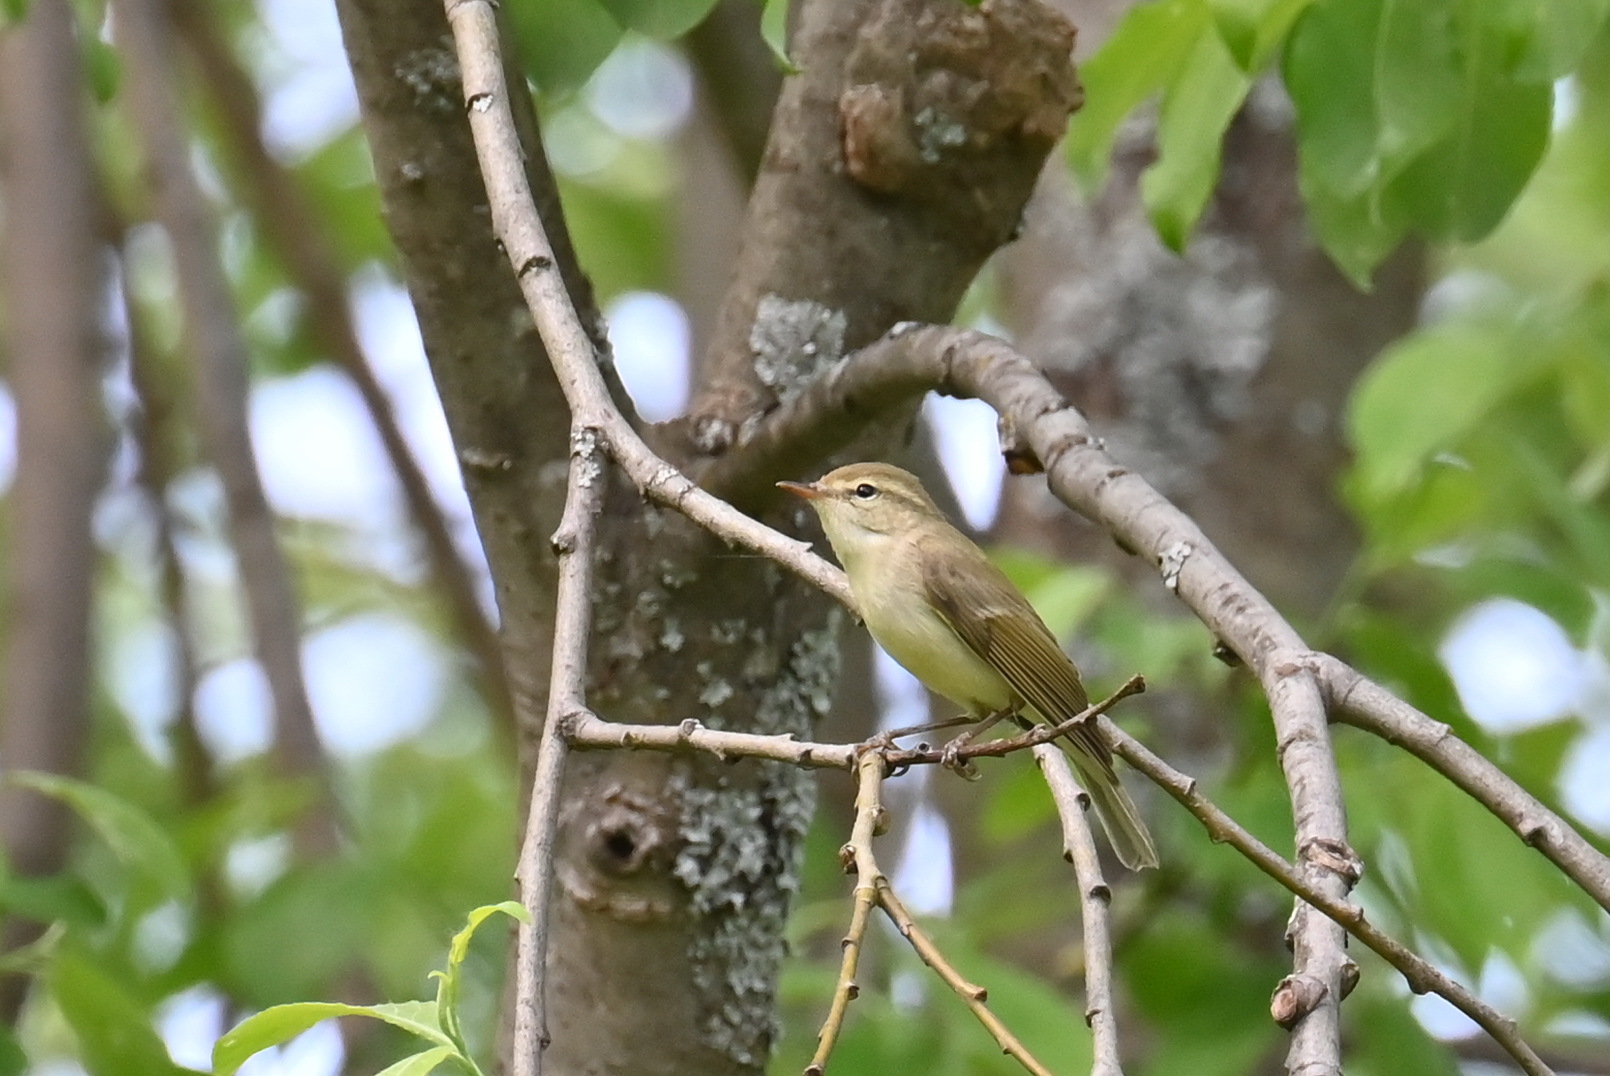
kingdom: Animalia
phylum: Chordata
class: Aves
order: Passeriformes
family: Phylloscopidae
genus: Phylloscopus
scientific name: Phylloscopus trochiloides
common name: Greenish warbler
